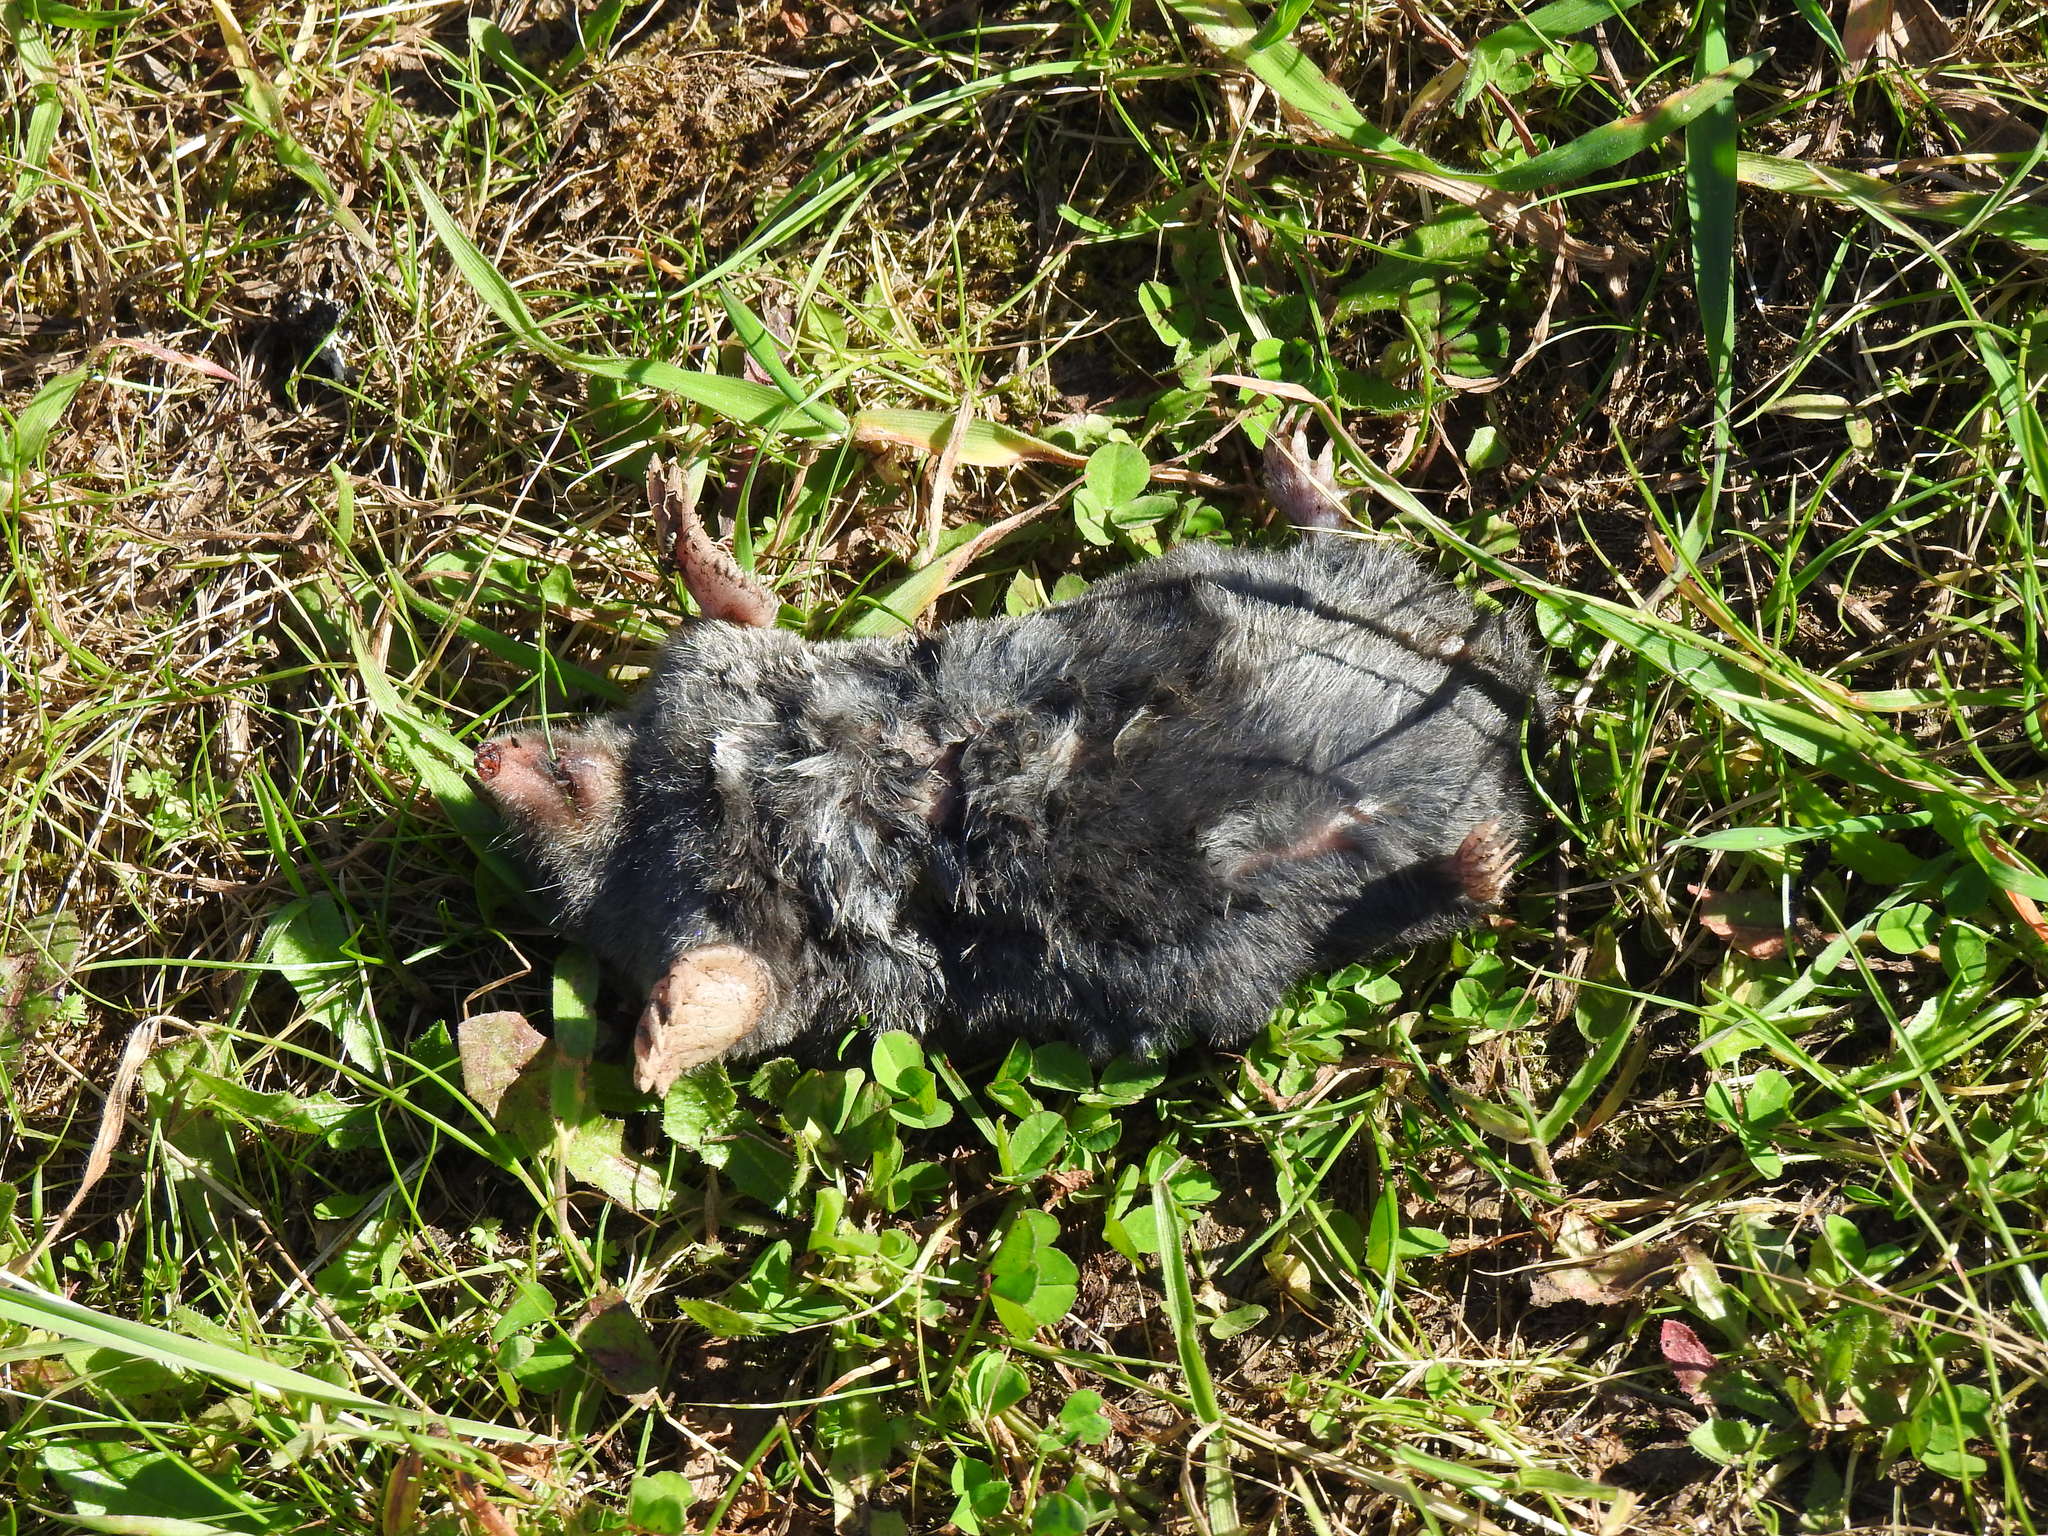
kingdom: Animalia
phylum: Chordata
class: Mammalia
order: Soricomorpha
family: Talpidae
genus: Talpa
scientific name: Talpa occidentalis
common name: Iberian mole
